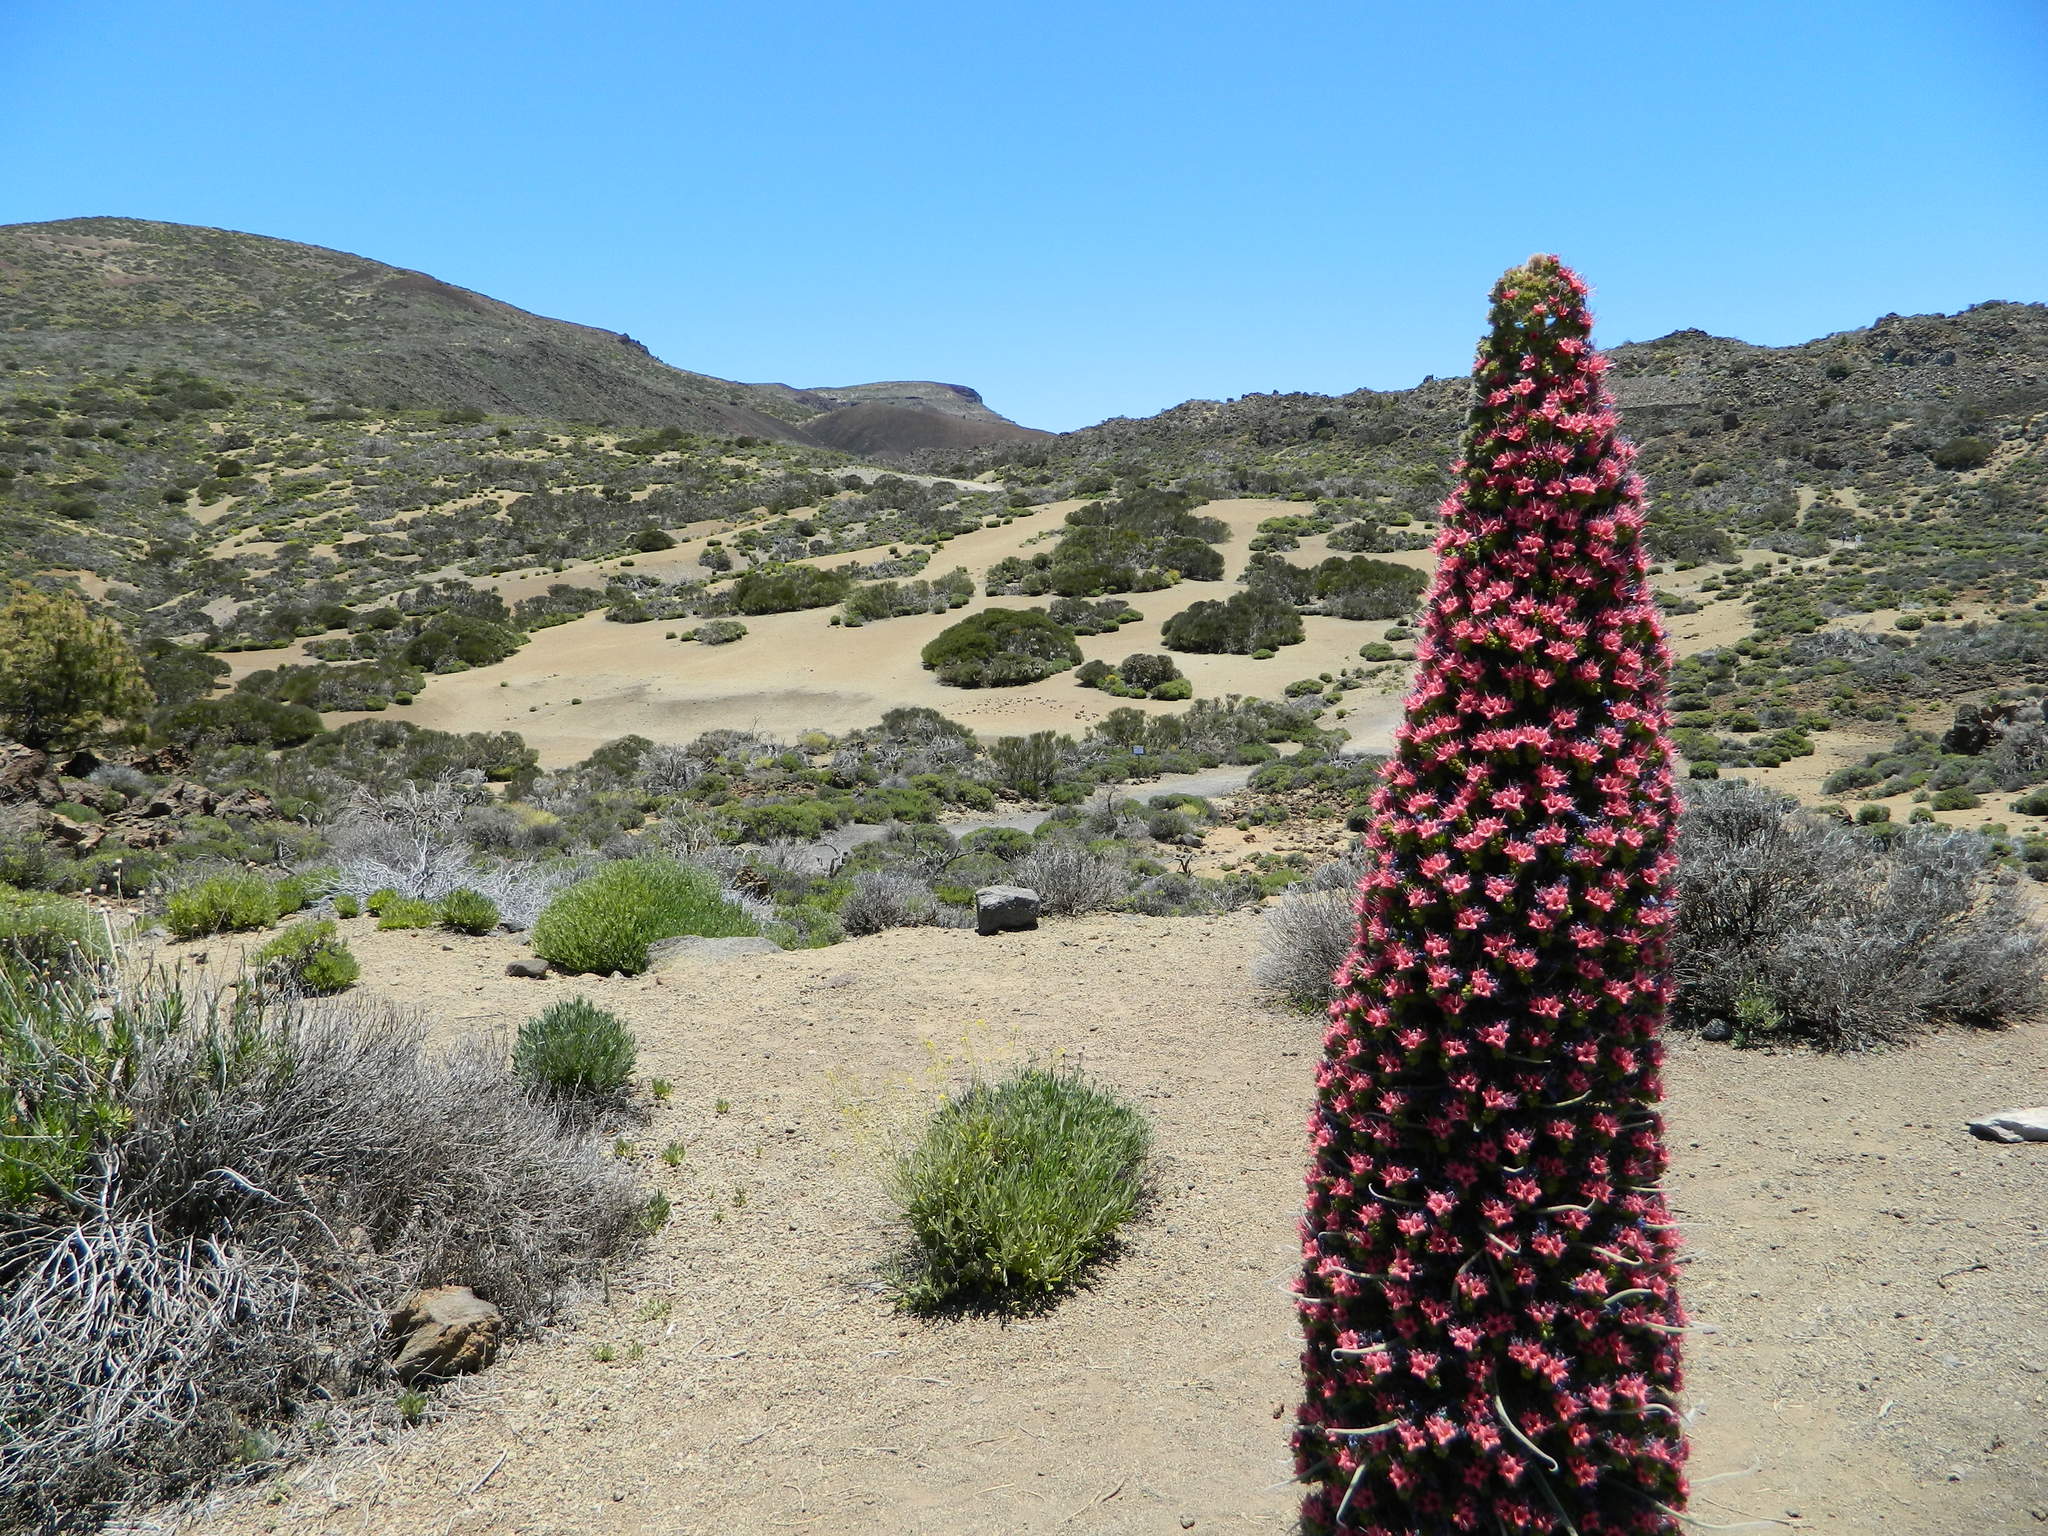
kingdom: Plantae
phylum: Tracheophyta
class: Magnoliopsida
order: Boraginales
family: Boraginaceae
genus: Echium
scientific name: Echium wildpretii
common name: Tower-of-jewels
